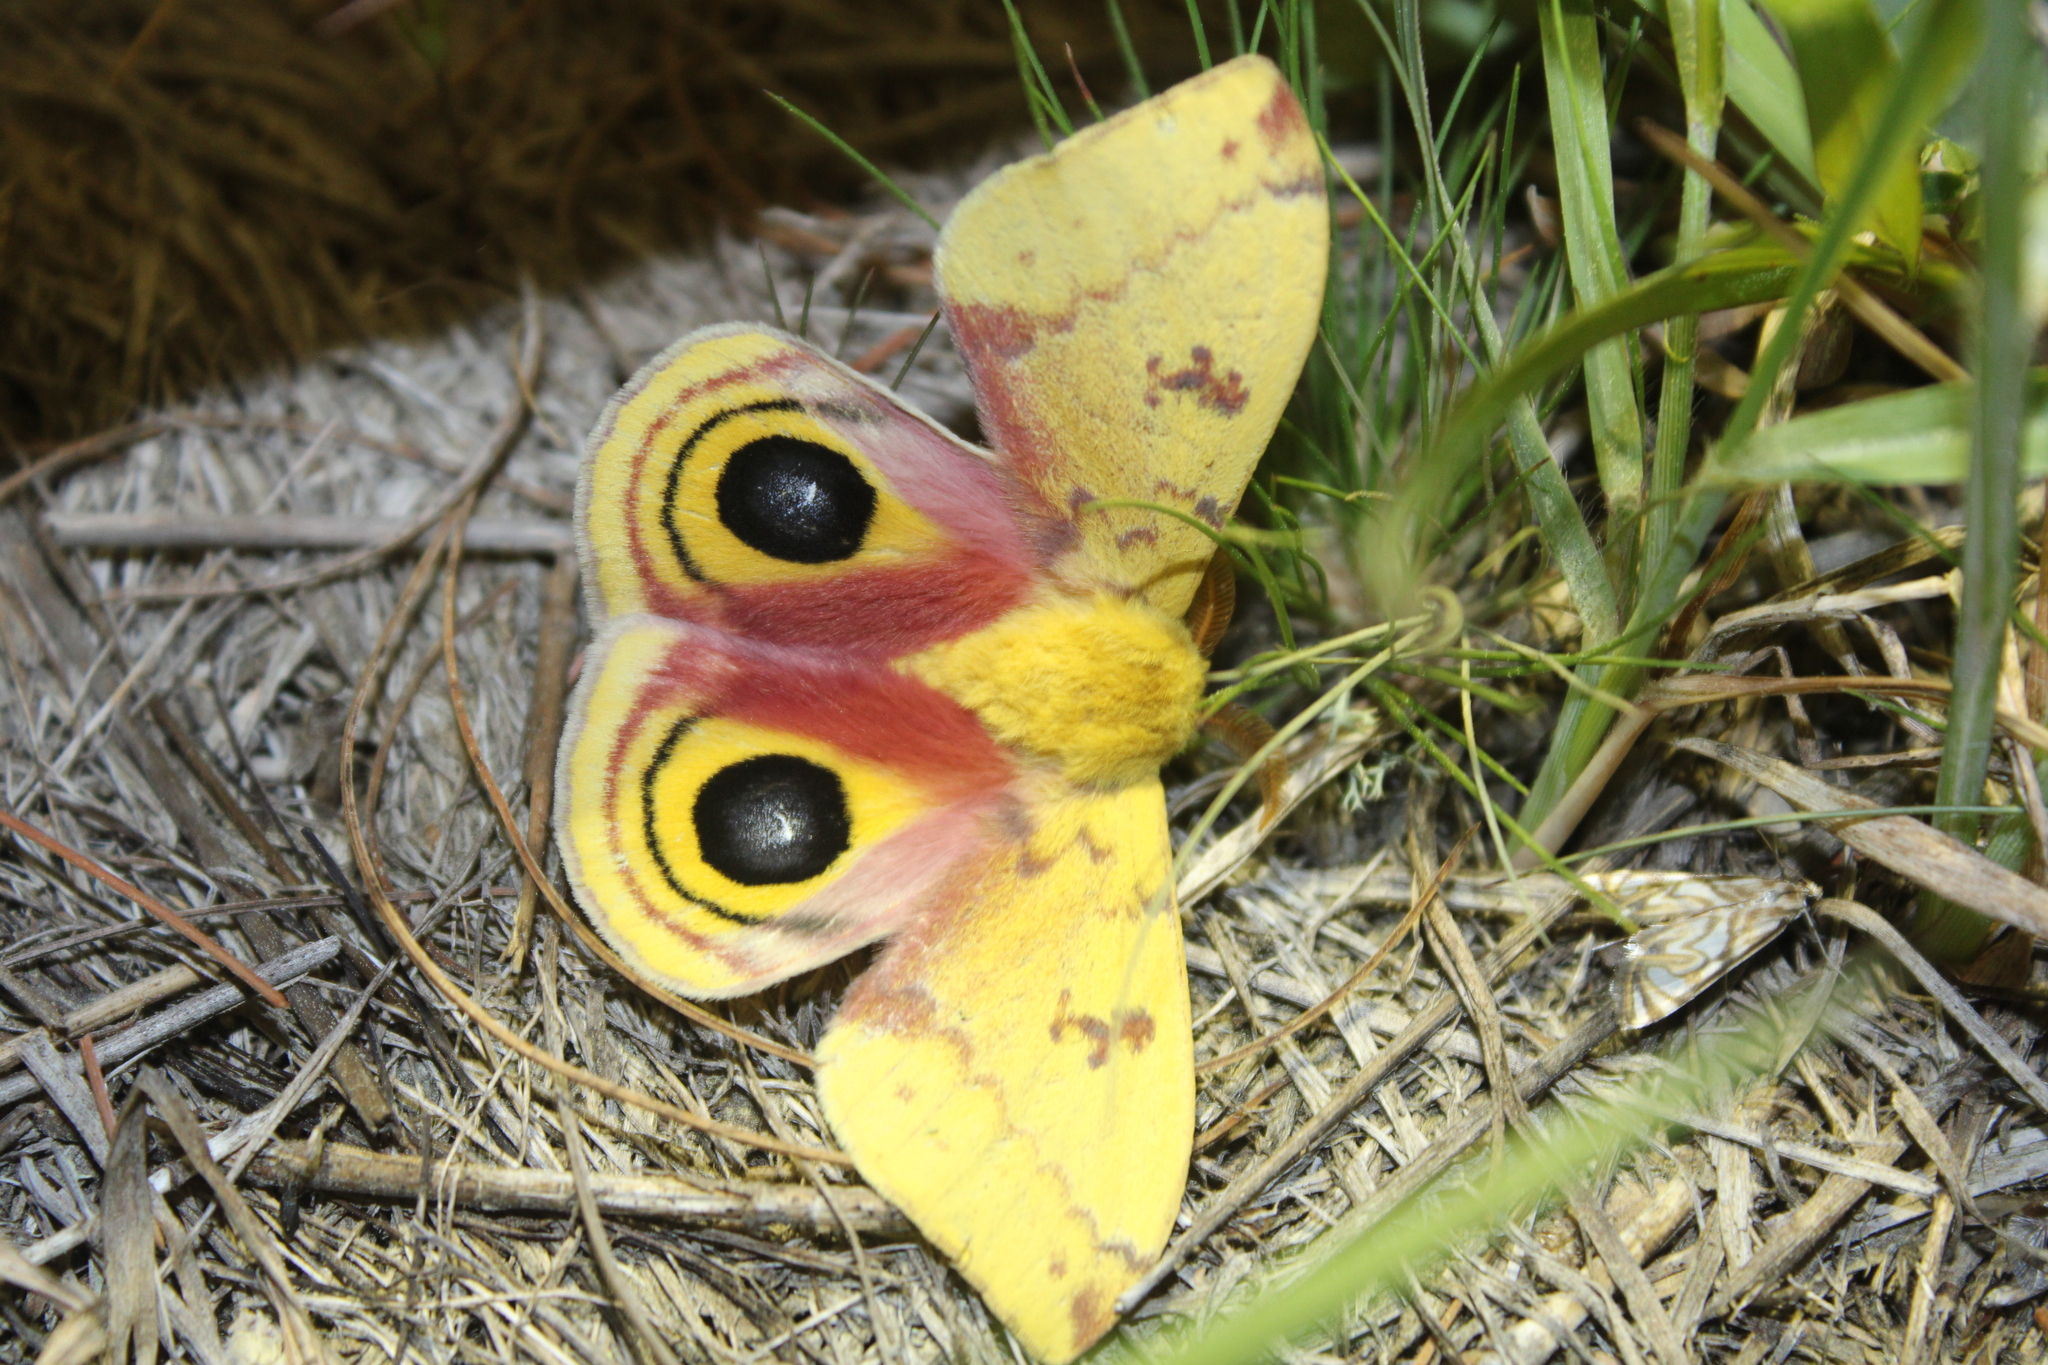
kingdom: Animalia
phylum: Arthropoda
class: Insecta
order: Lepidoptera
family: Saturniidae
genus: Automeris
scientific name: Automeris io
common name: Io moth
